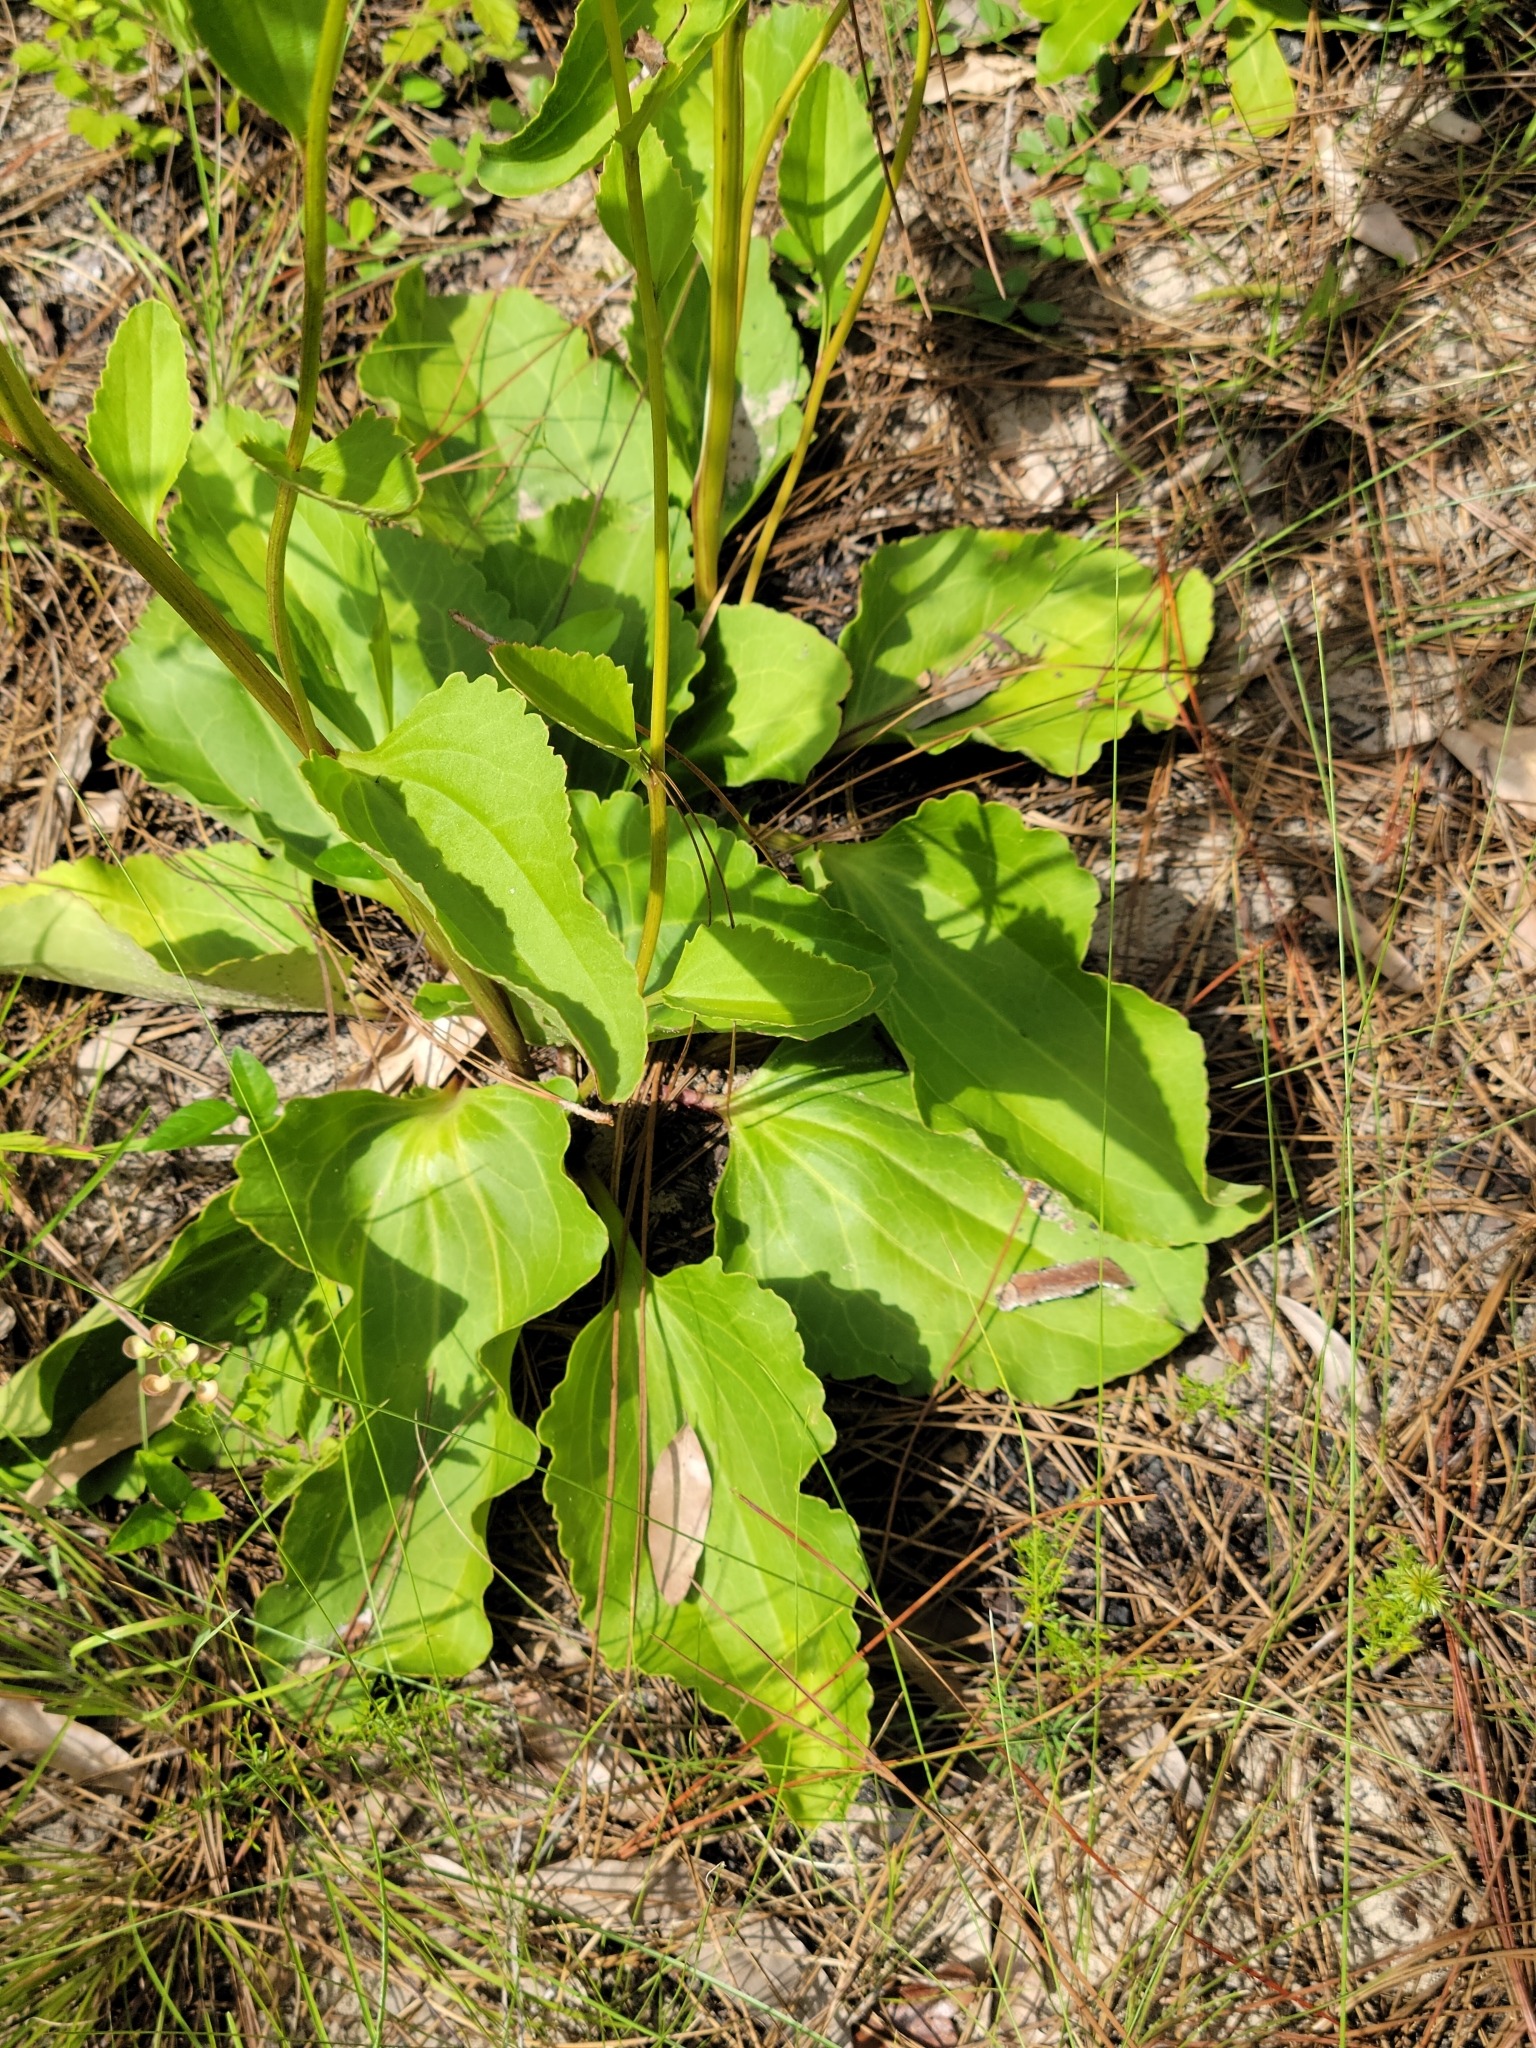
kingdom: Plantae
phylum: Tracheophyta
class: Magnoliopsida
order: Asterales
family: Asteraceae
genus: Arnoglossum
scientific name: Arnoglossum floridanum
